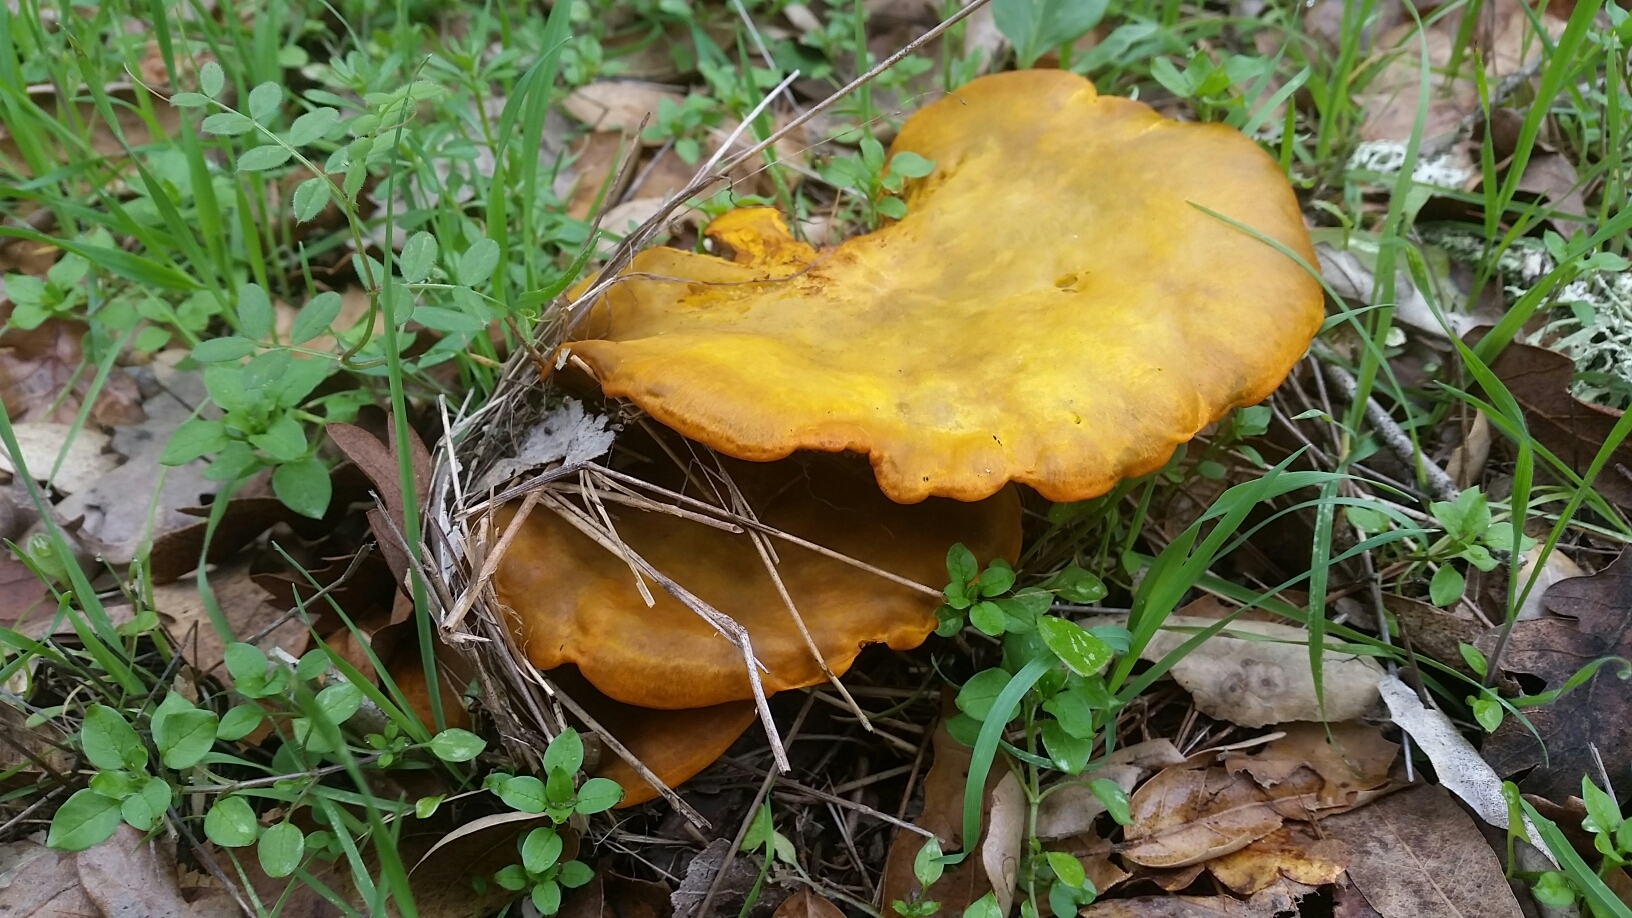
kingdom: Fungi
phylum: Basidiomycota
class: Agaricomycetes
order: Agaricales
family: Omphalotaceae
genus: Omphalotus
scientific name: Omphalotus olivascens
